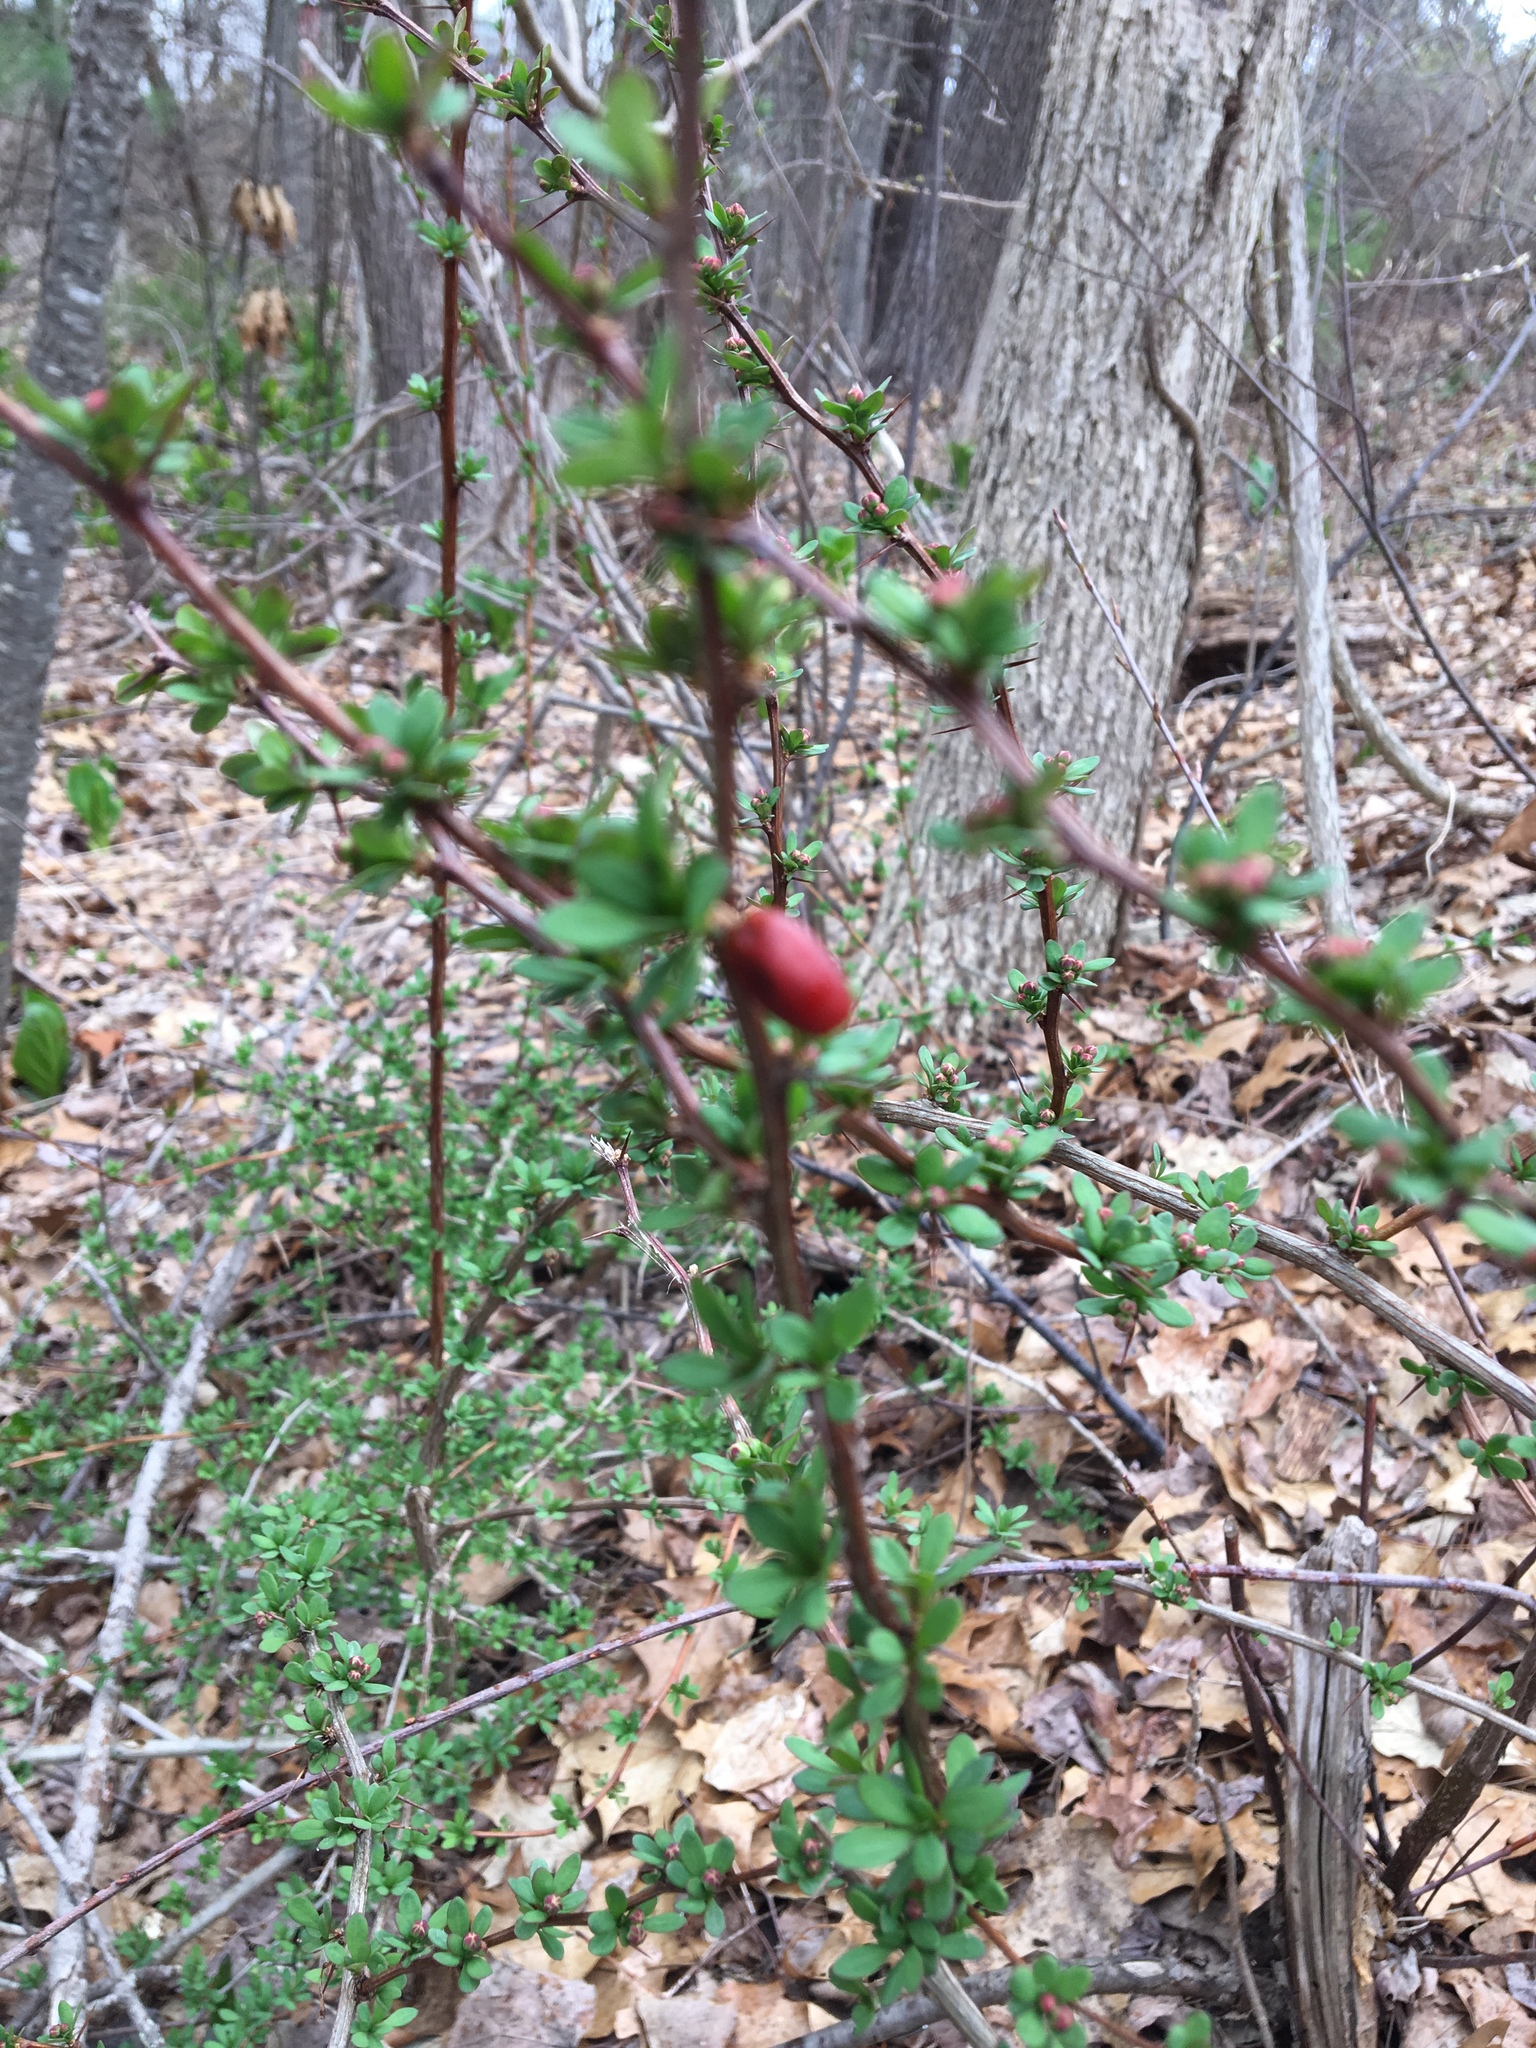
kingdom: Plantae
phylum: Tracheophyta
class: Magnoliopsida
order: Ranunculales
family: Berberidaceae
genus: Berberis
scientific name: Berberis thunbergii
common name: Japanese barberry
